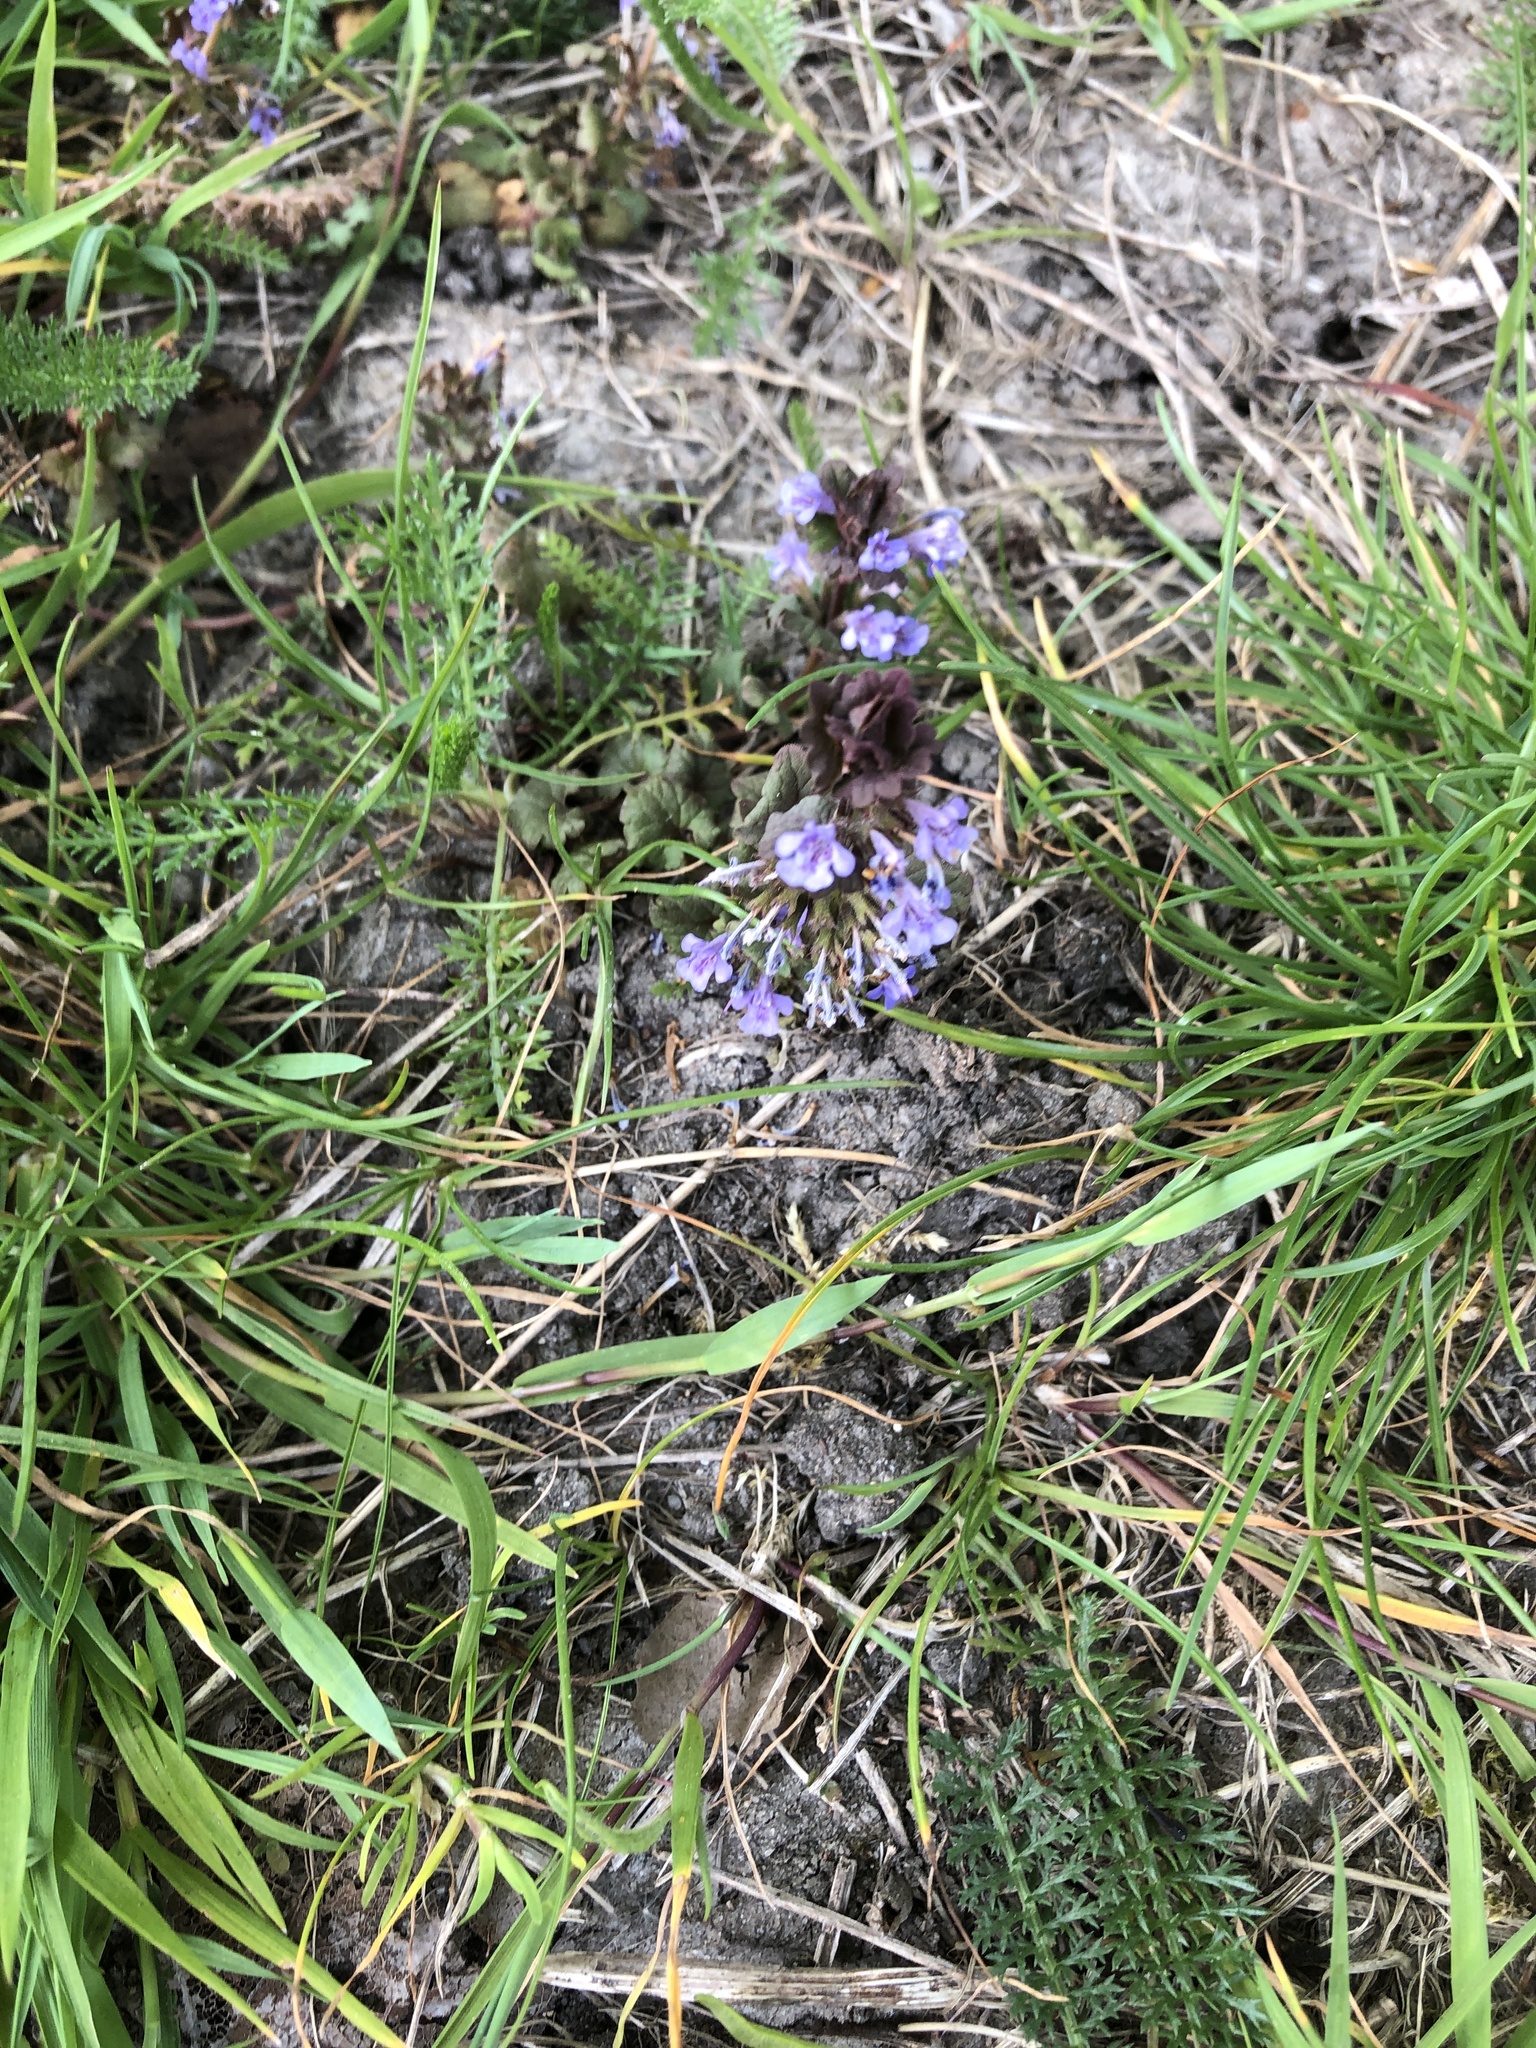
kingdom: Plantae
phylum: Tracheophyta
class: Magnoliopsida
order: Lamiales
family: Lamiaceae
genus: Glechoma
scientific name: Glechoma hederacea
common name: Ground ivy
